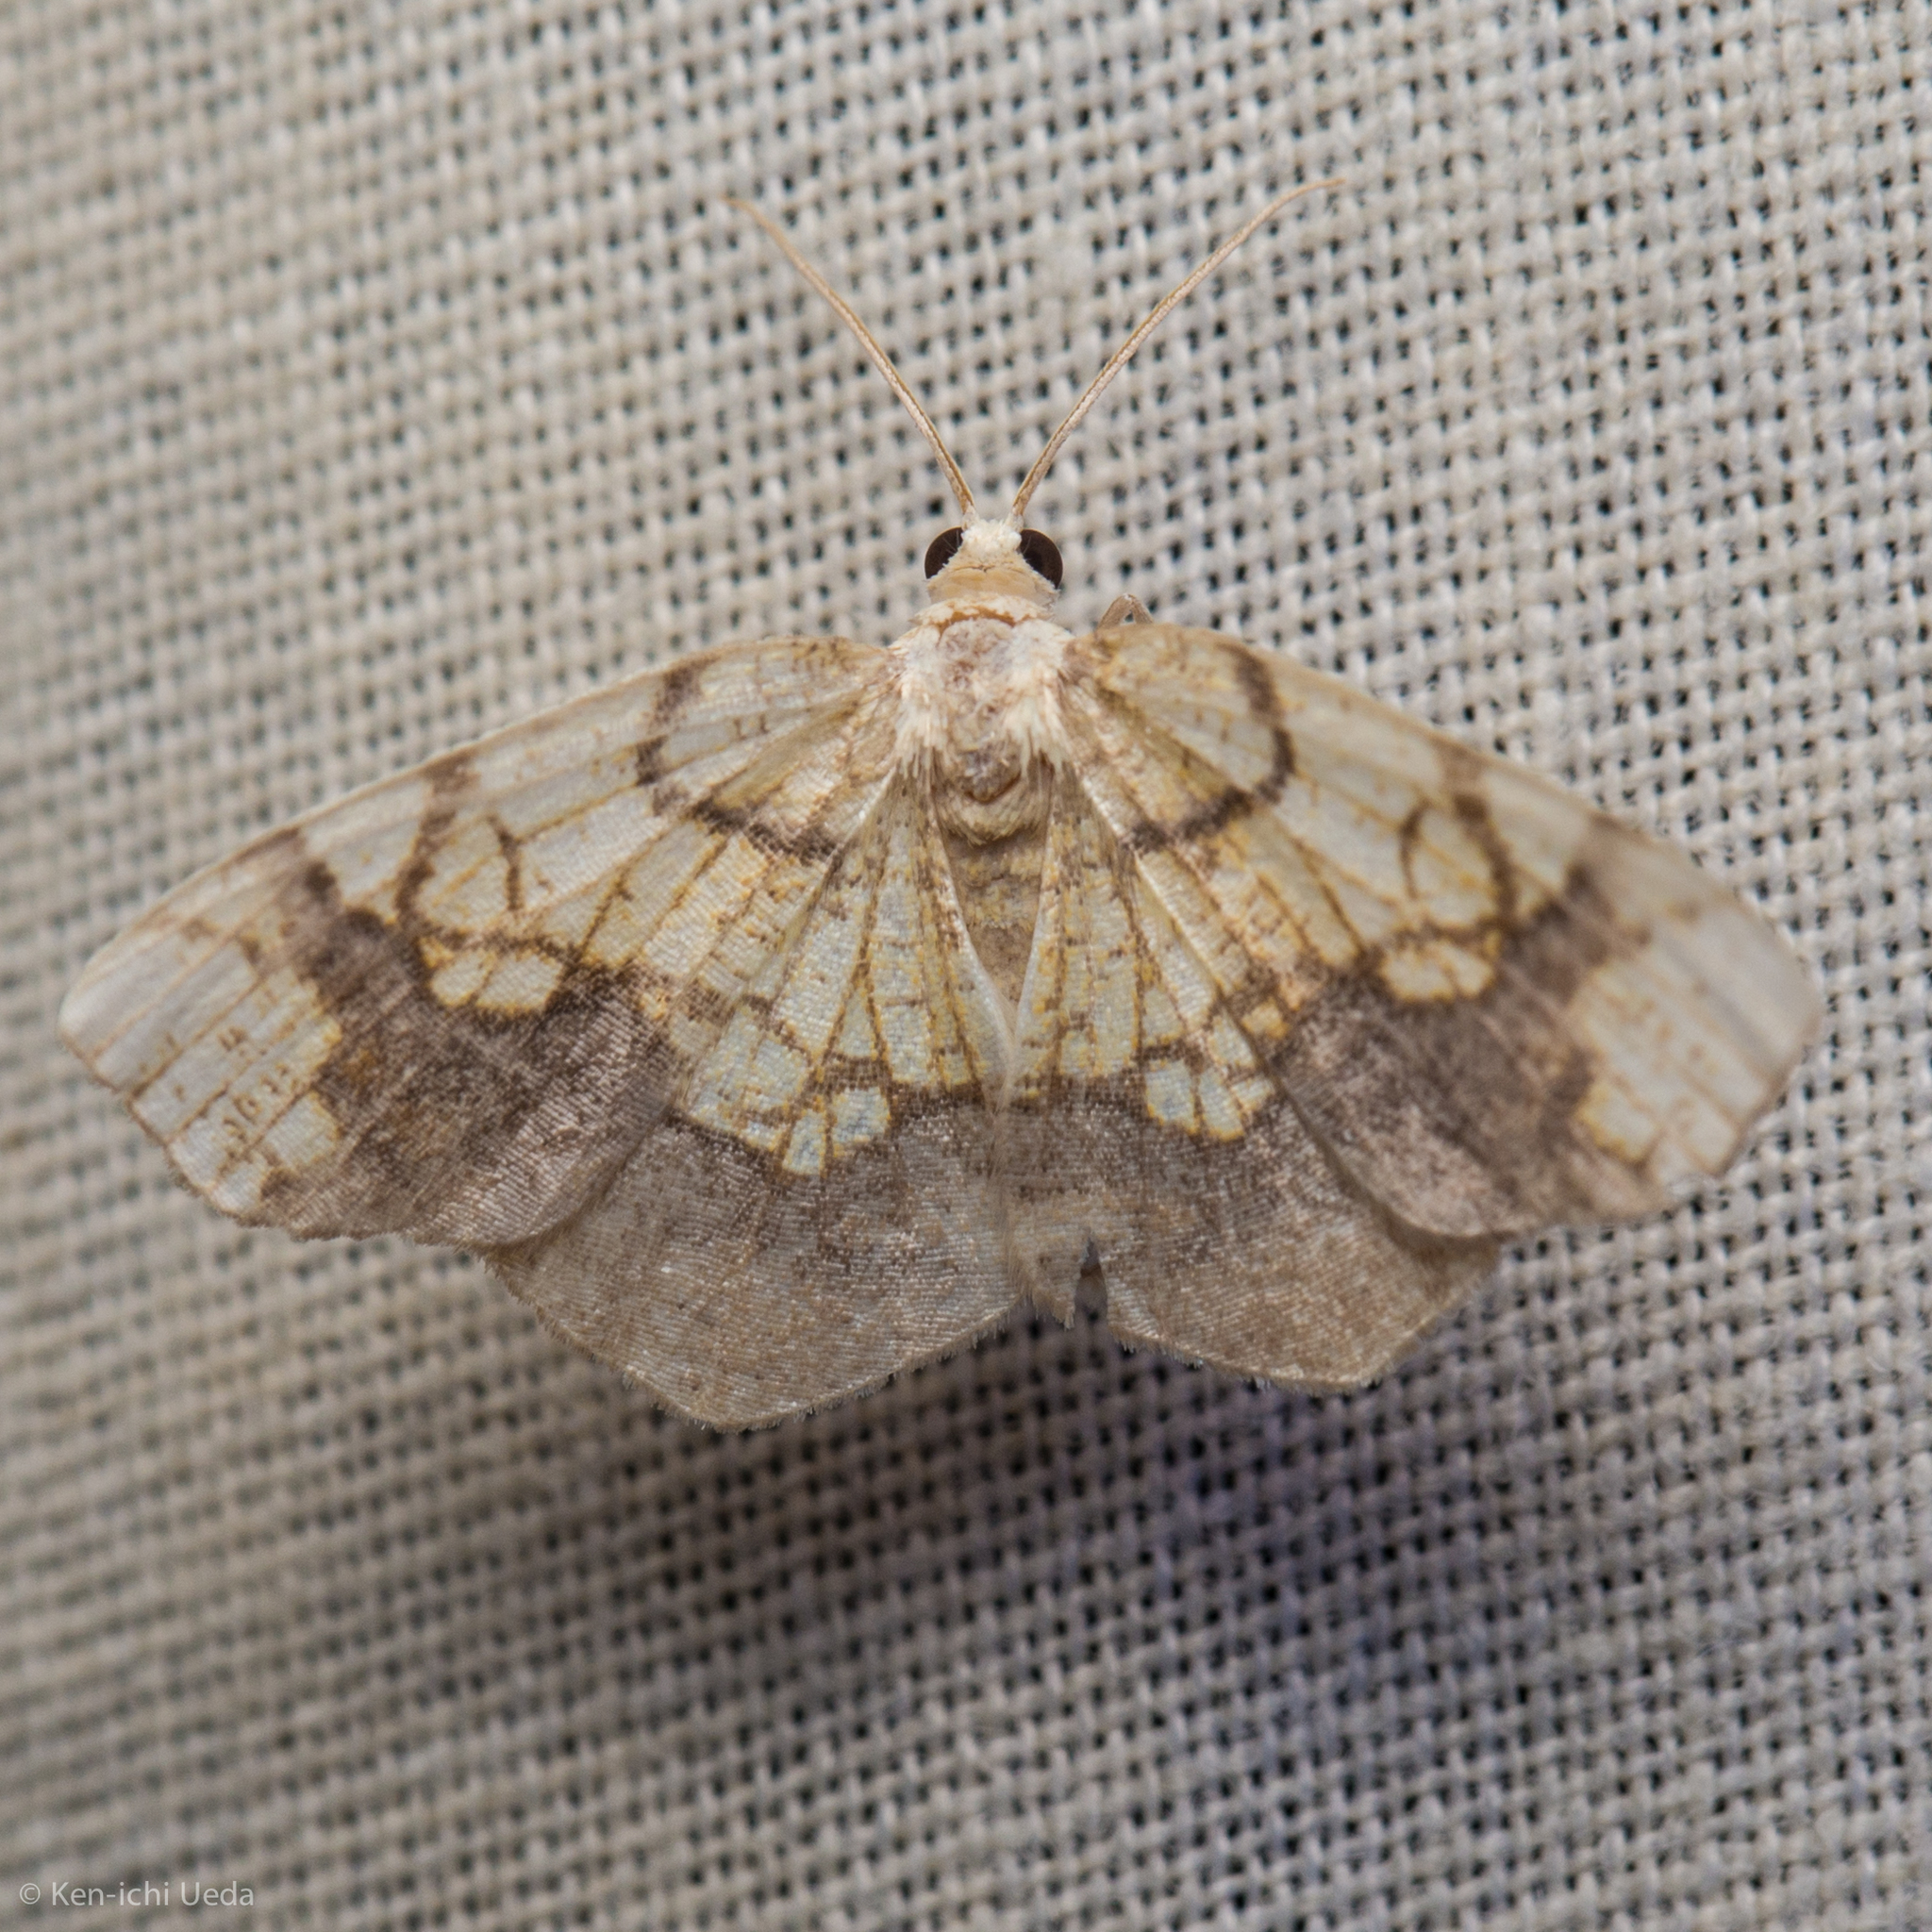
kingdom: Animalia
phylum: Arthropoda
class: Insecta
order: Lepidoptera
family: Geometridae
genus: Nematocampa
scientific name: Nematocampa resistaria
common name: Horned spanworm moth
